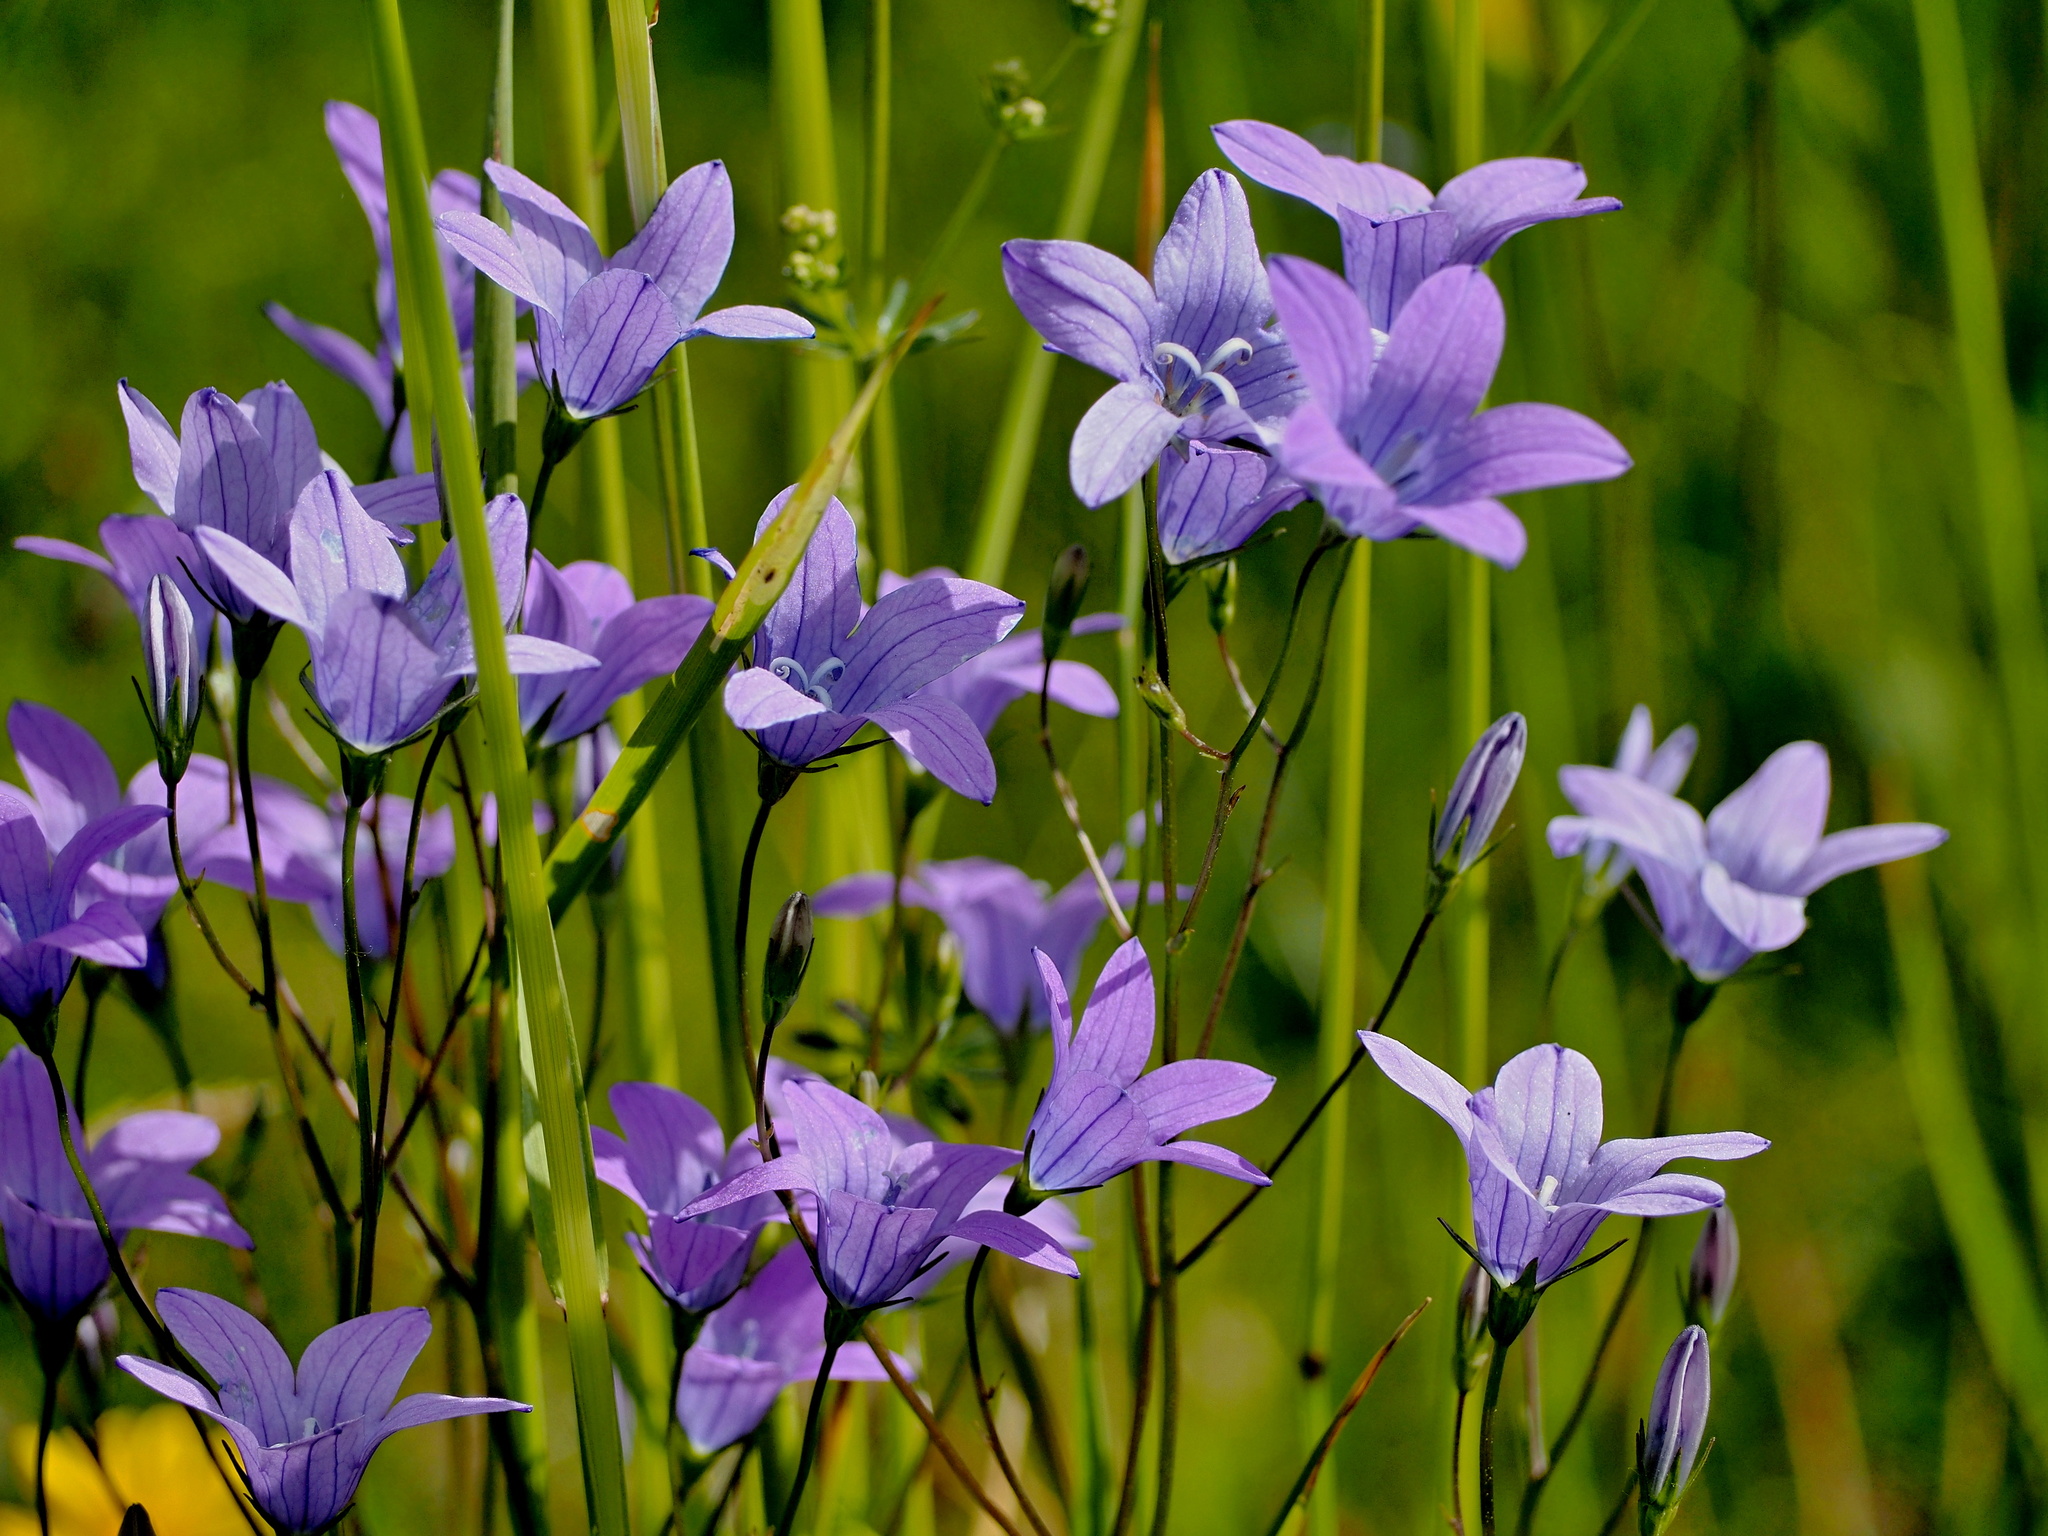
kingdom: Plantae
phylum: Tracheophyta
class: Magnoliopsida
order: Asterales
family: Campanulaceae
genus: Campanula
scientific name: Campanula patula
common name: Spreading bellflower
